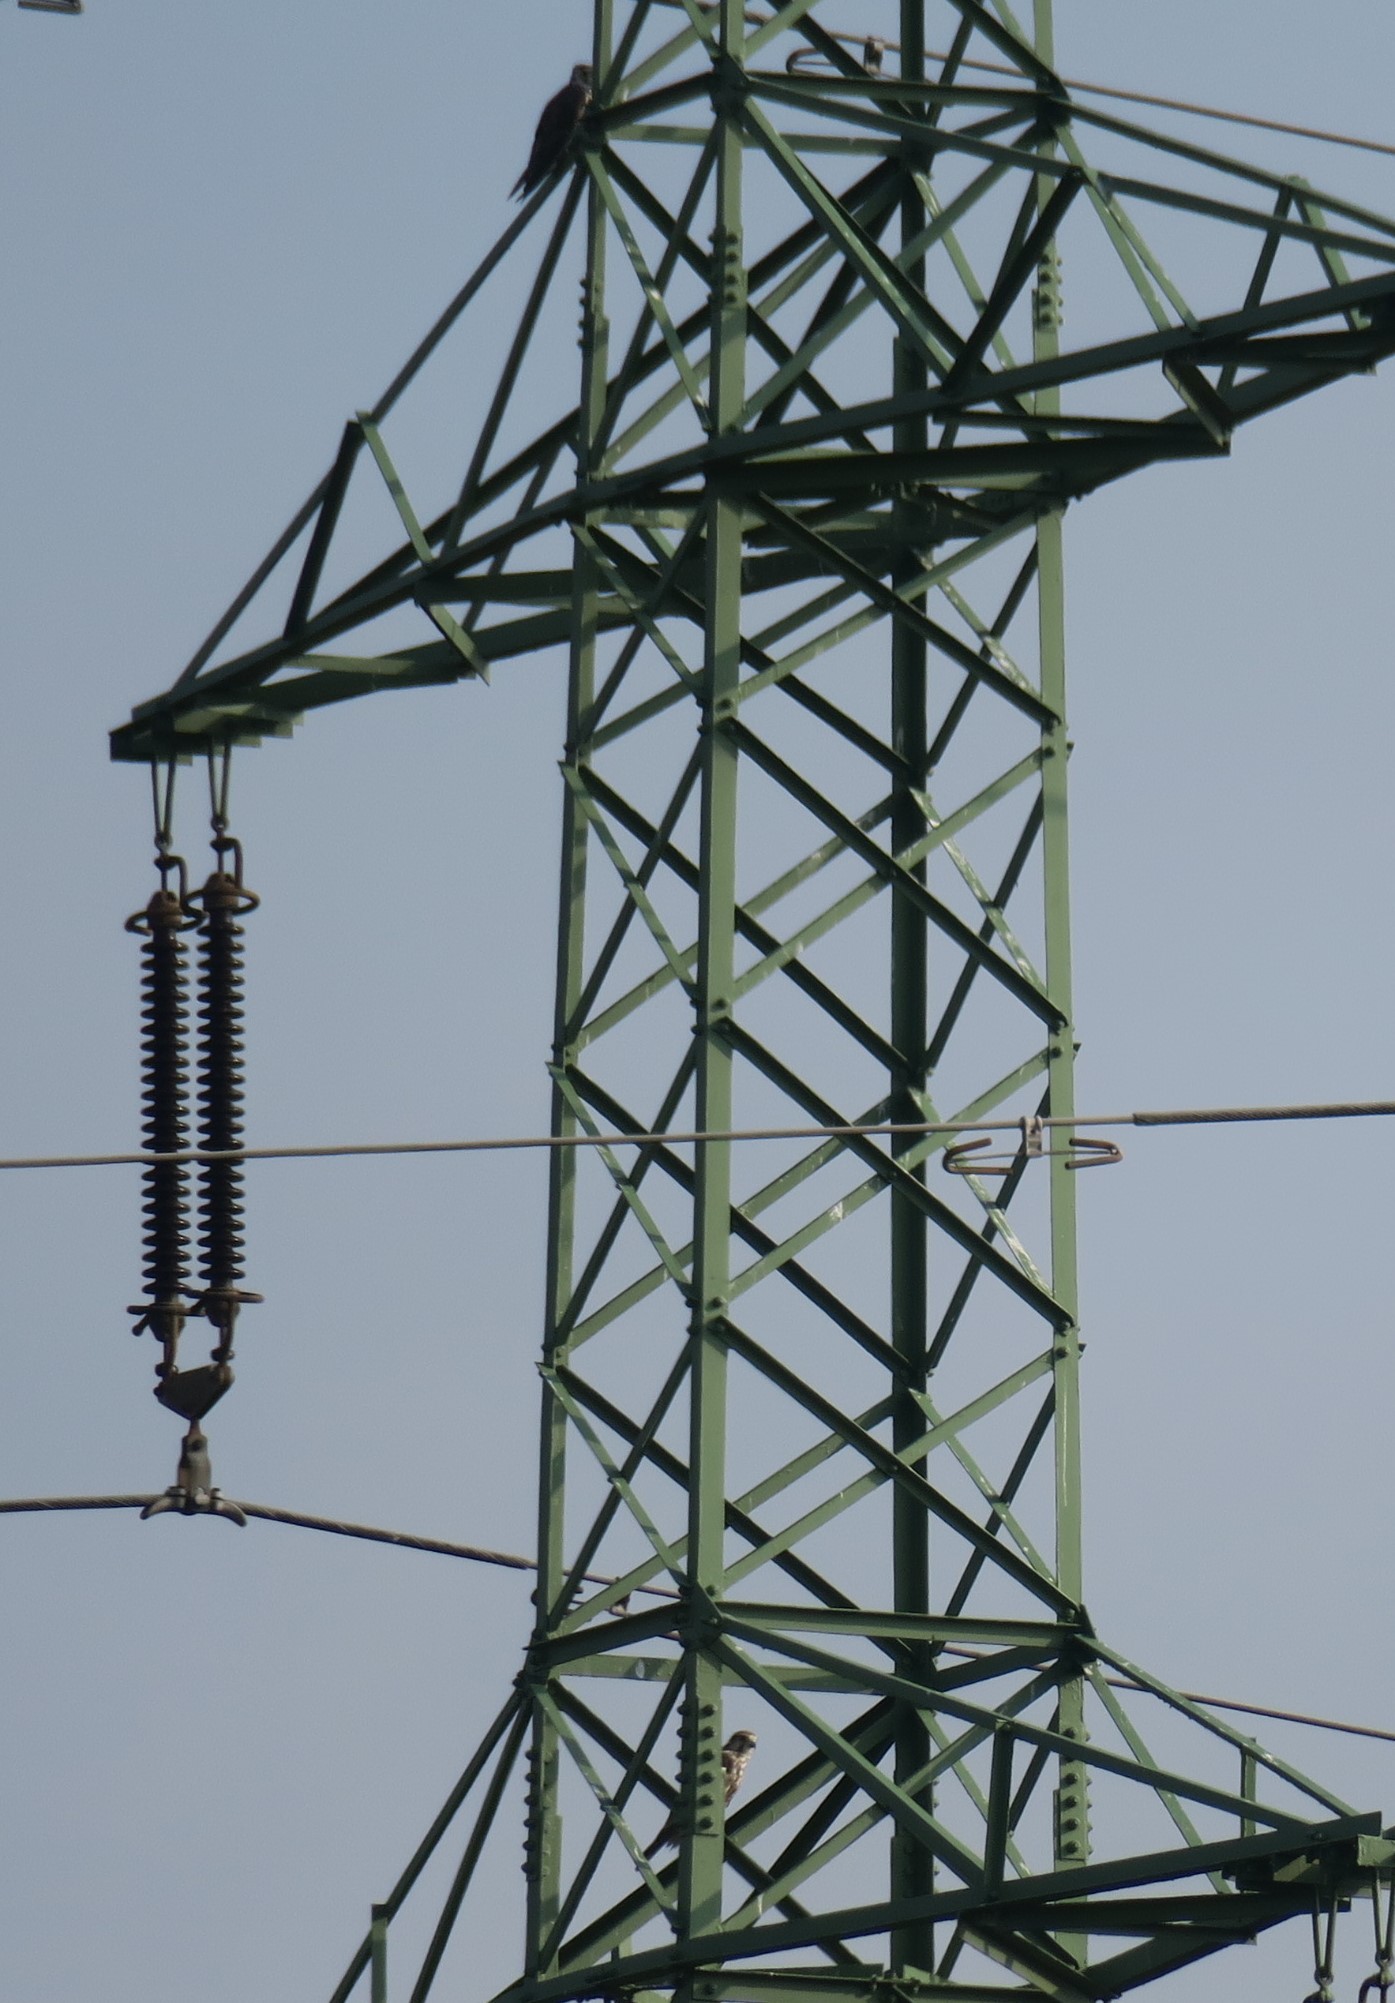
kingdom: Animalia
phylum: Chordata
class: Aves
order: Falconiformes
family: Falconidae
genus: Falco
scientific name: Falco cherrug
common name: Saker falcon
